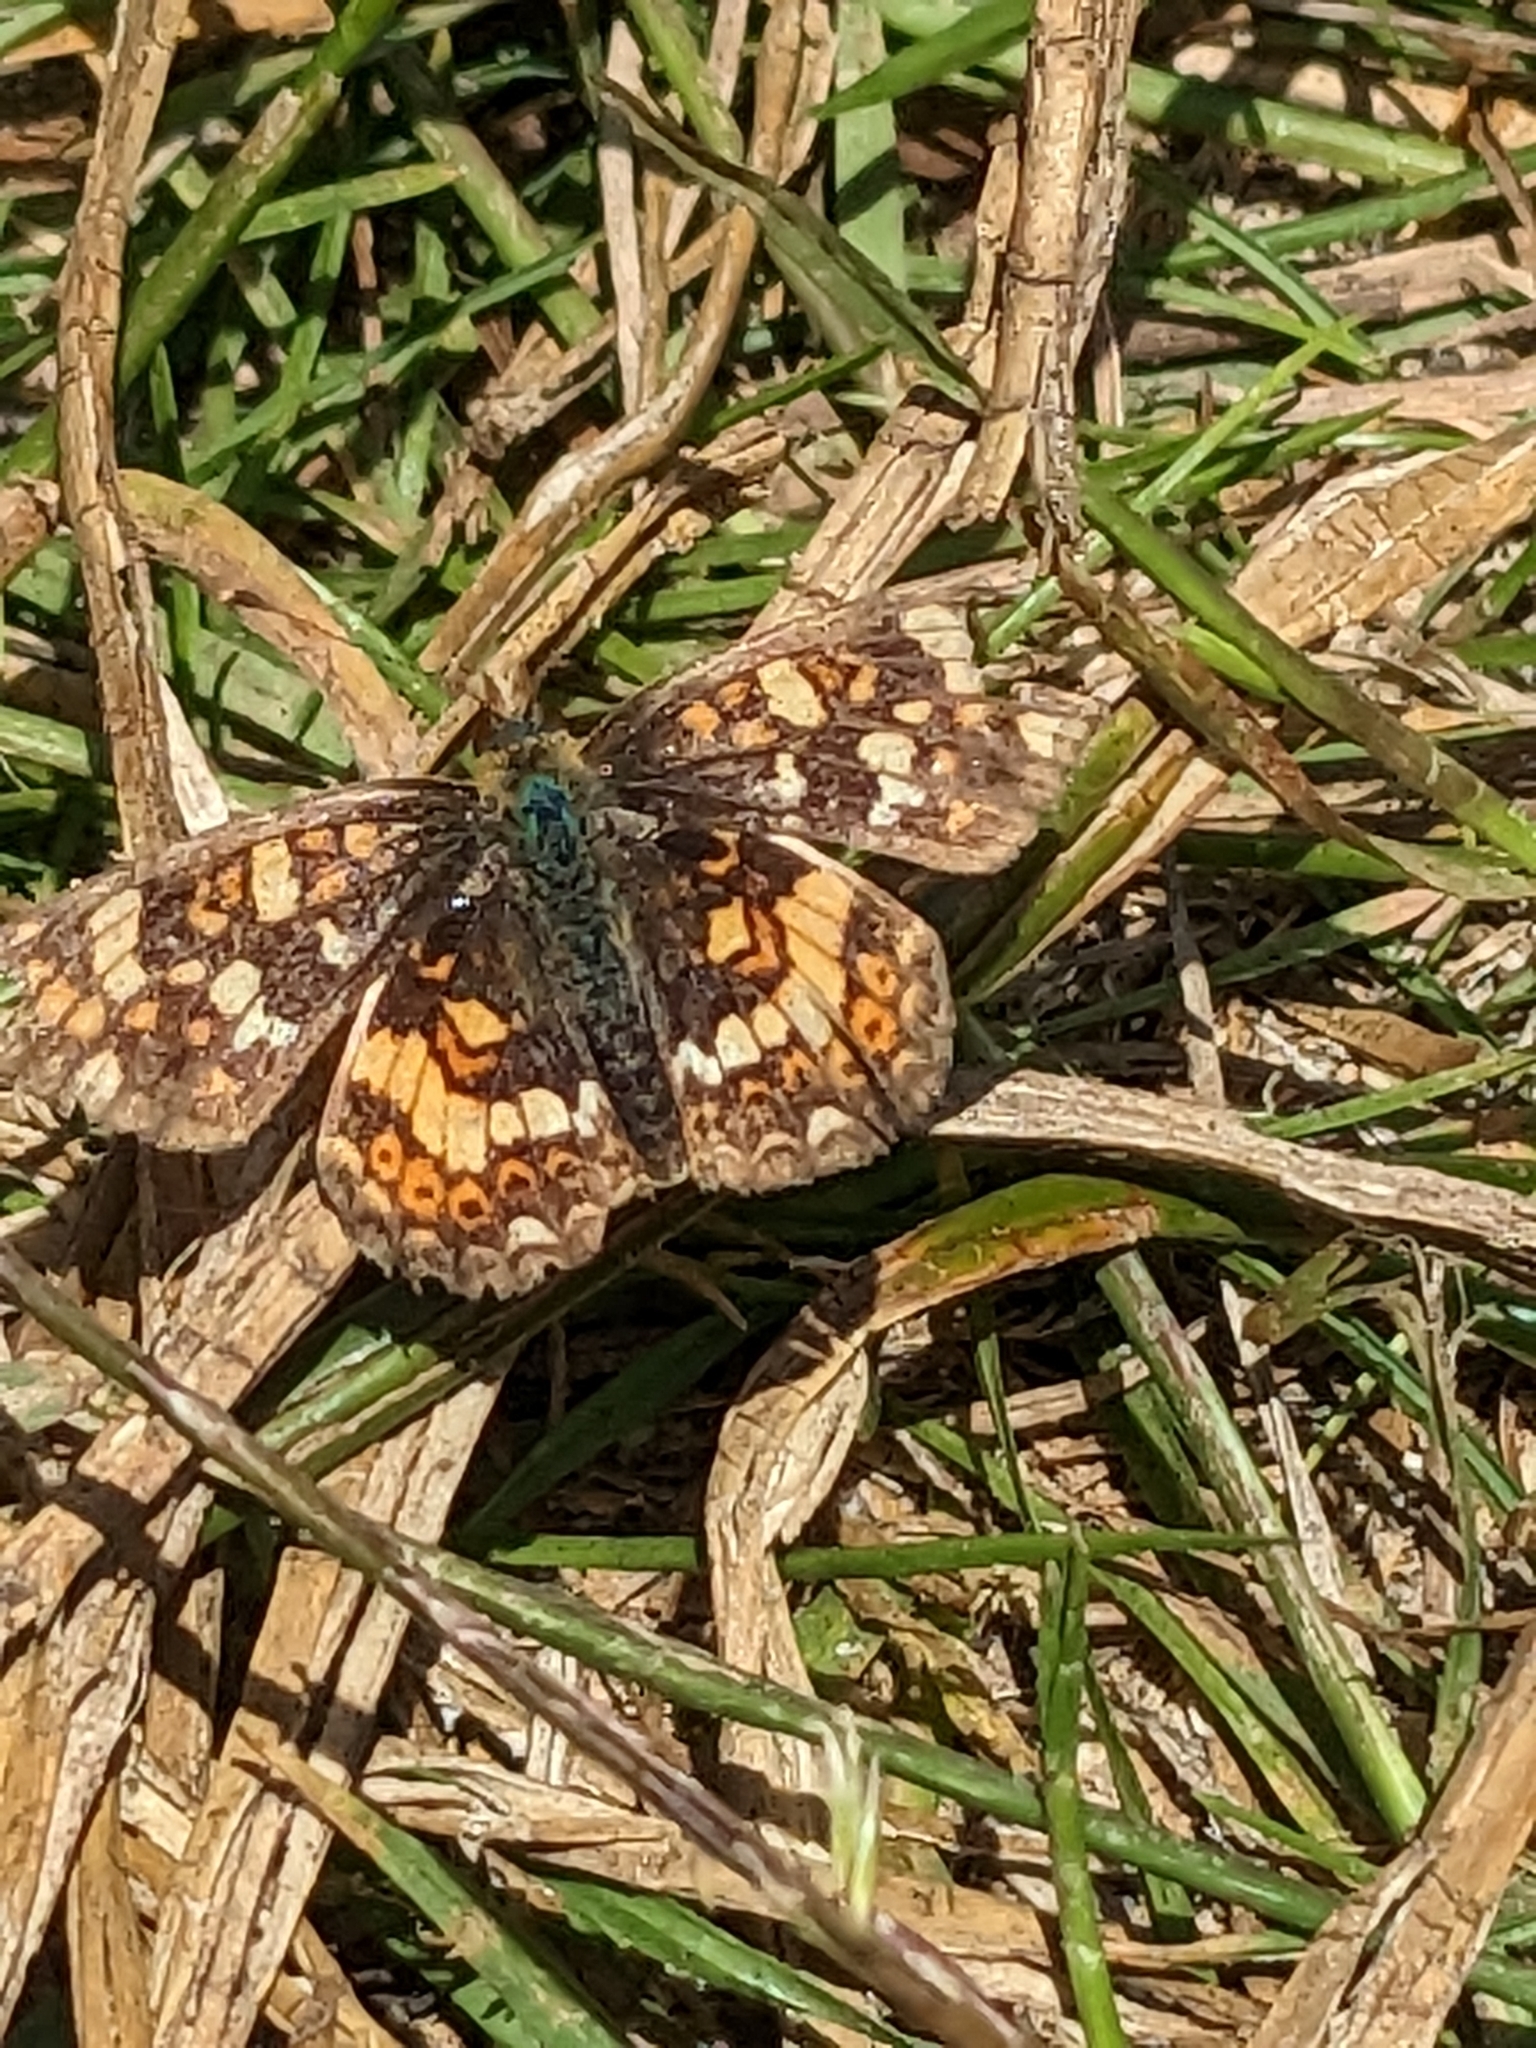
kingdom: Animalia
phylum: Arthropoda
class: Insecta
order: Lepidoptera
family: Nymphalidae
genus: Phyciodes
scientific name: Phyciodes tharos
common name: Pearl crescent
